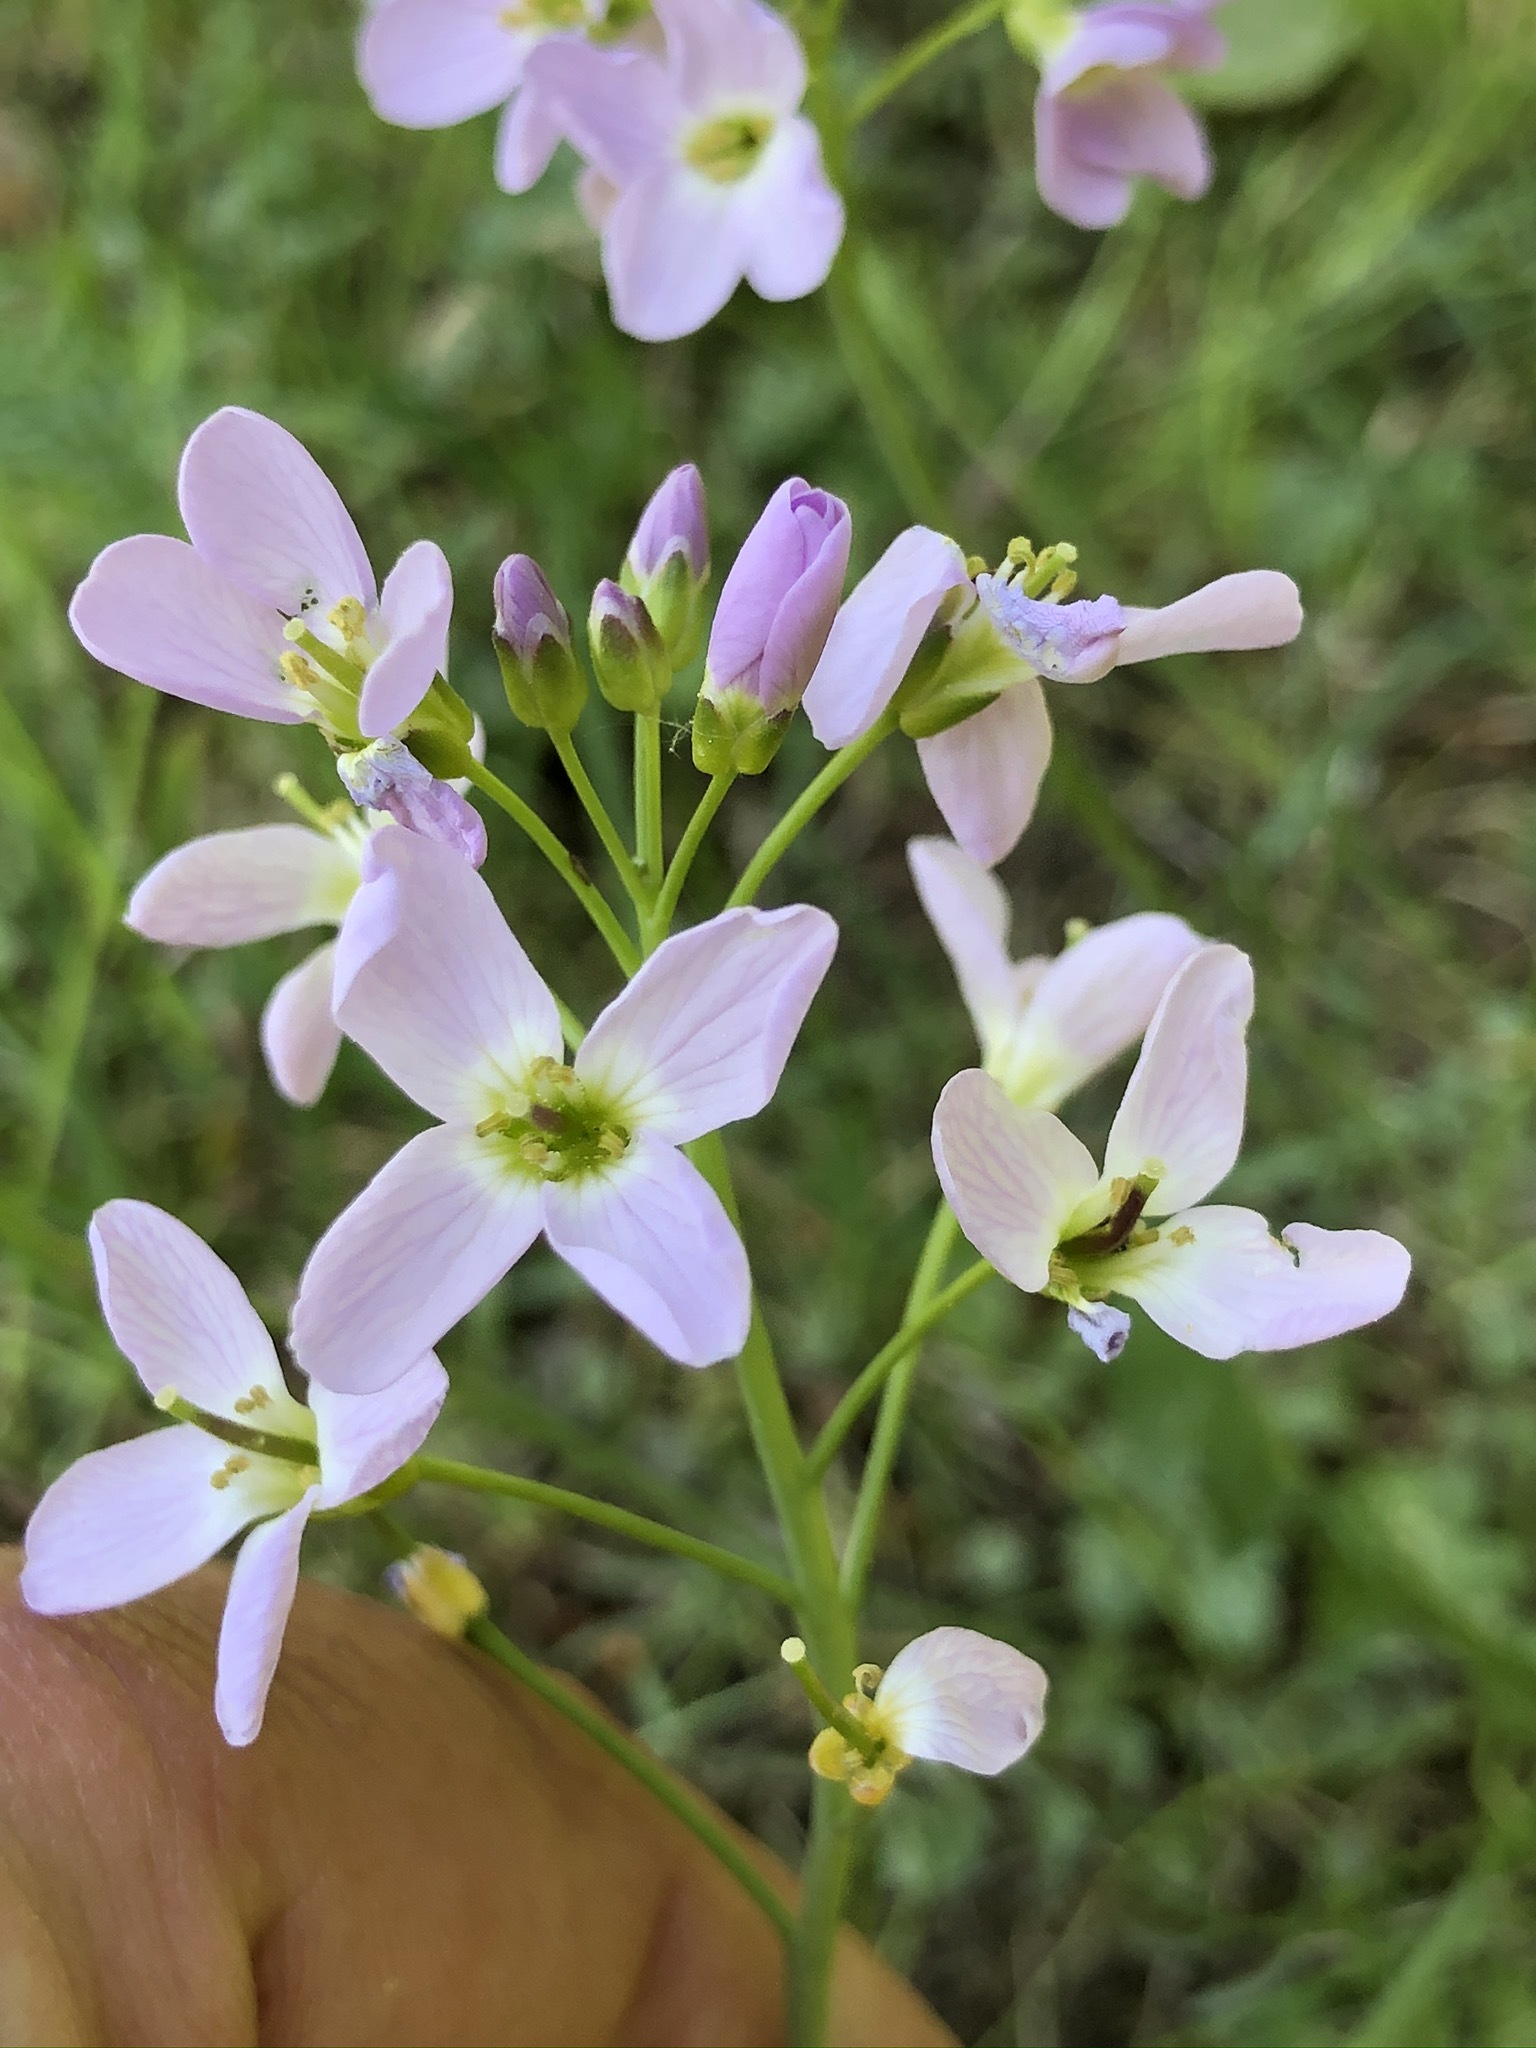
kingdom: Plantae
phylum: Tracheophyta
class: Magnoliopsida
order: Brassicales
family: Brassicaceae
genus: Cardamine
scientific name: Cardamine pratensis
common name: Cuckoo flower
